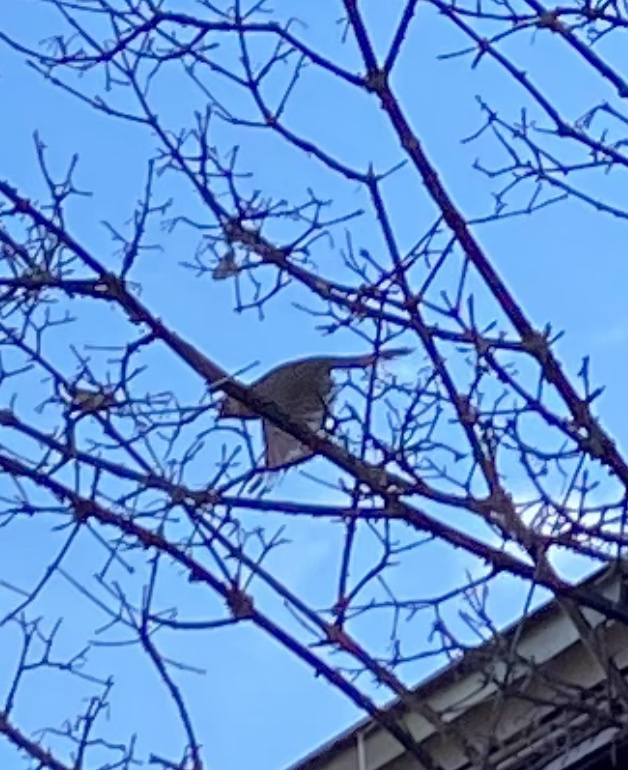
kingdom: Animalia
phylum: Chordata
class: Aves
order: Passeriformes
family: Cardinalidae
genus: Cardinalis
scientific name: Cardinalis cardinalis
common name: Northern cardinal
